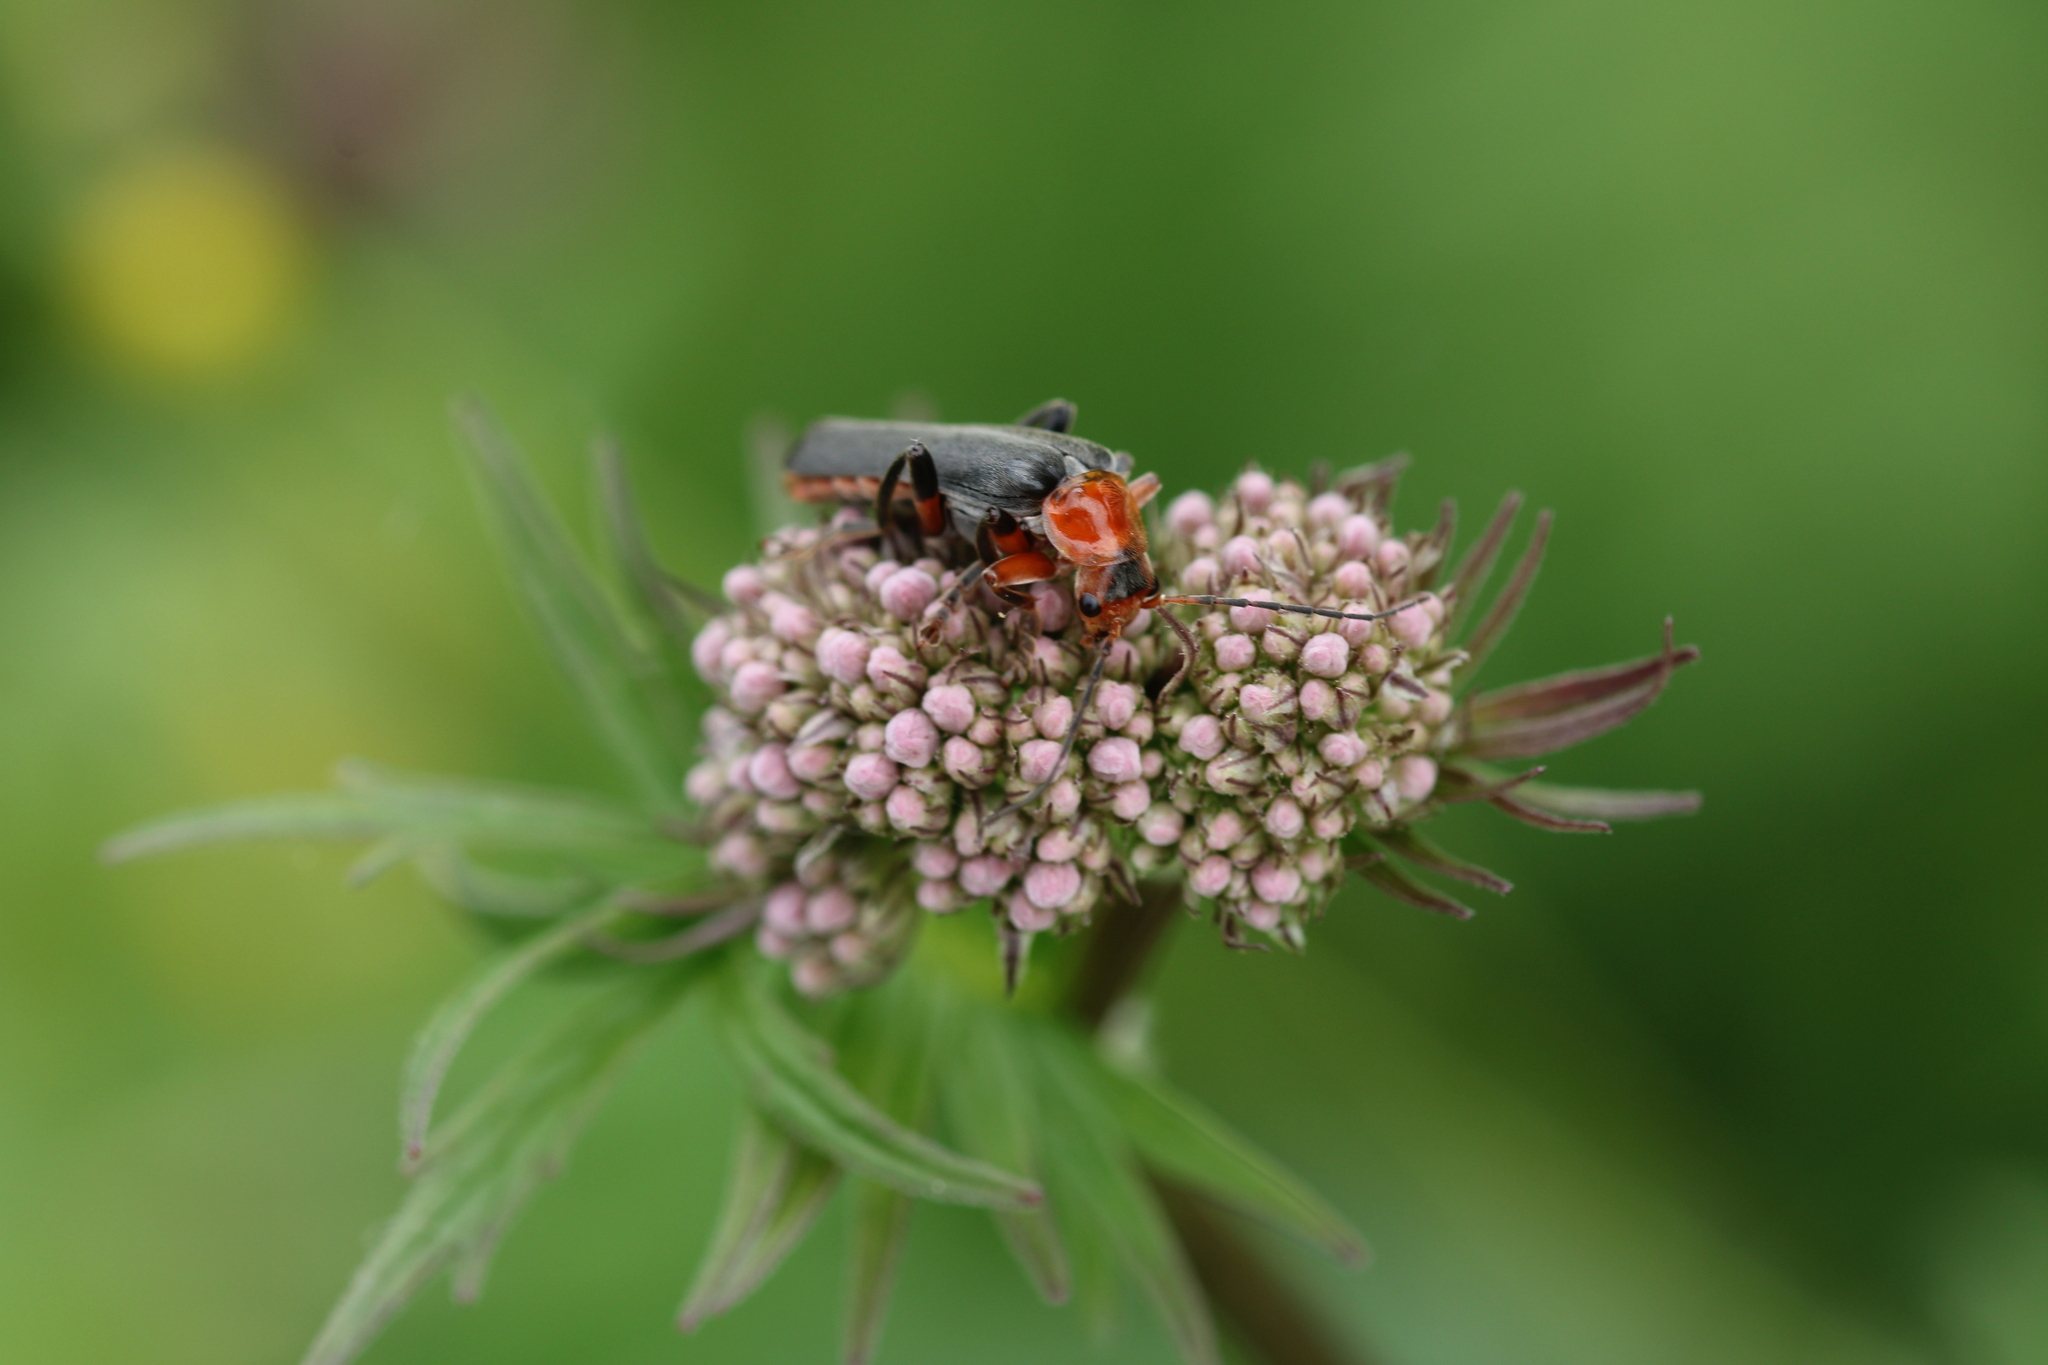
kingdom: Animalia
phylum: Arthropoda
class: Insecta
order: Coleoptera
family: Cantharidae
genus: Cantharis
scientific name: Cantharis livida
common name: Livid soldier beetle
